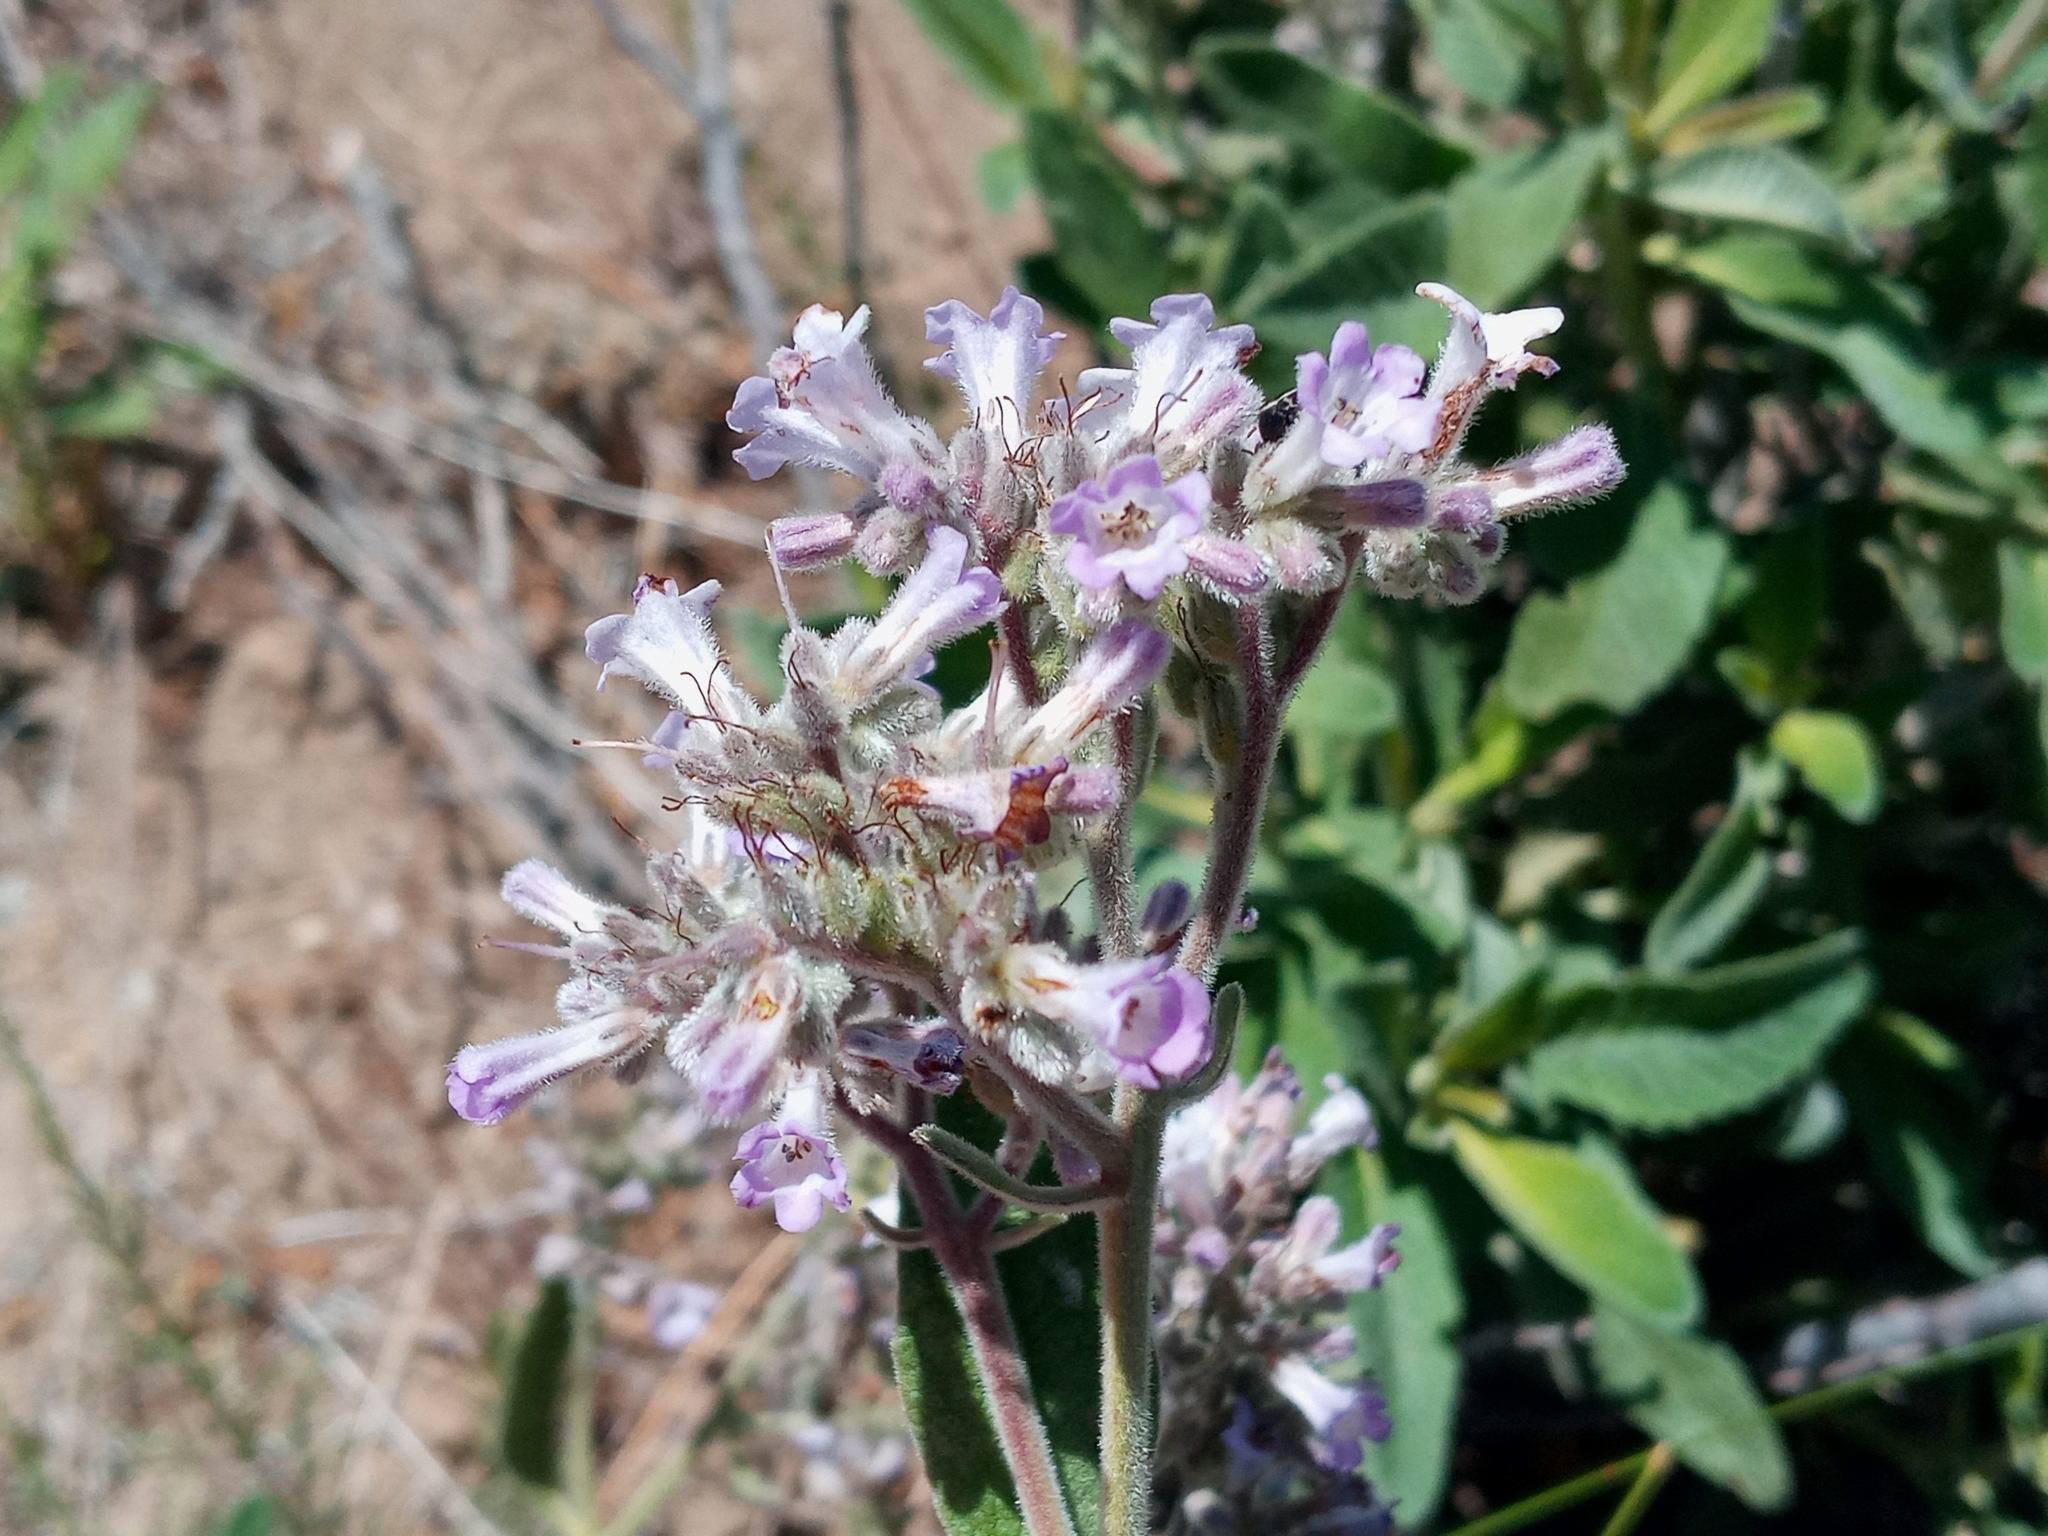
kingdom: Plantae
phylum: Tracheophyta
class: Magnoliopsida
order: Boraginales
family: Namaceae
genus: Eriodictyon
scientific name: Eriodictyon crassifolium
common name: Thick-leaf yerba-santa
